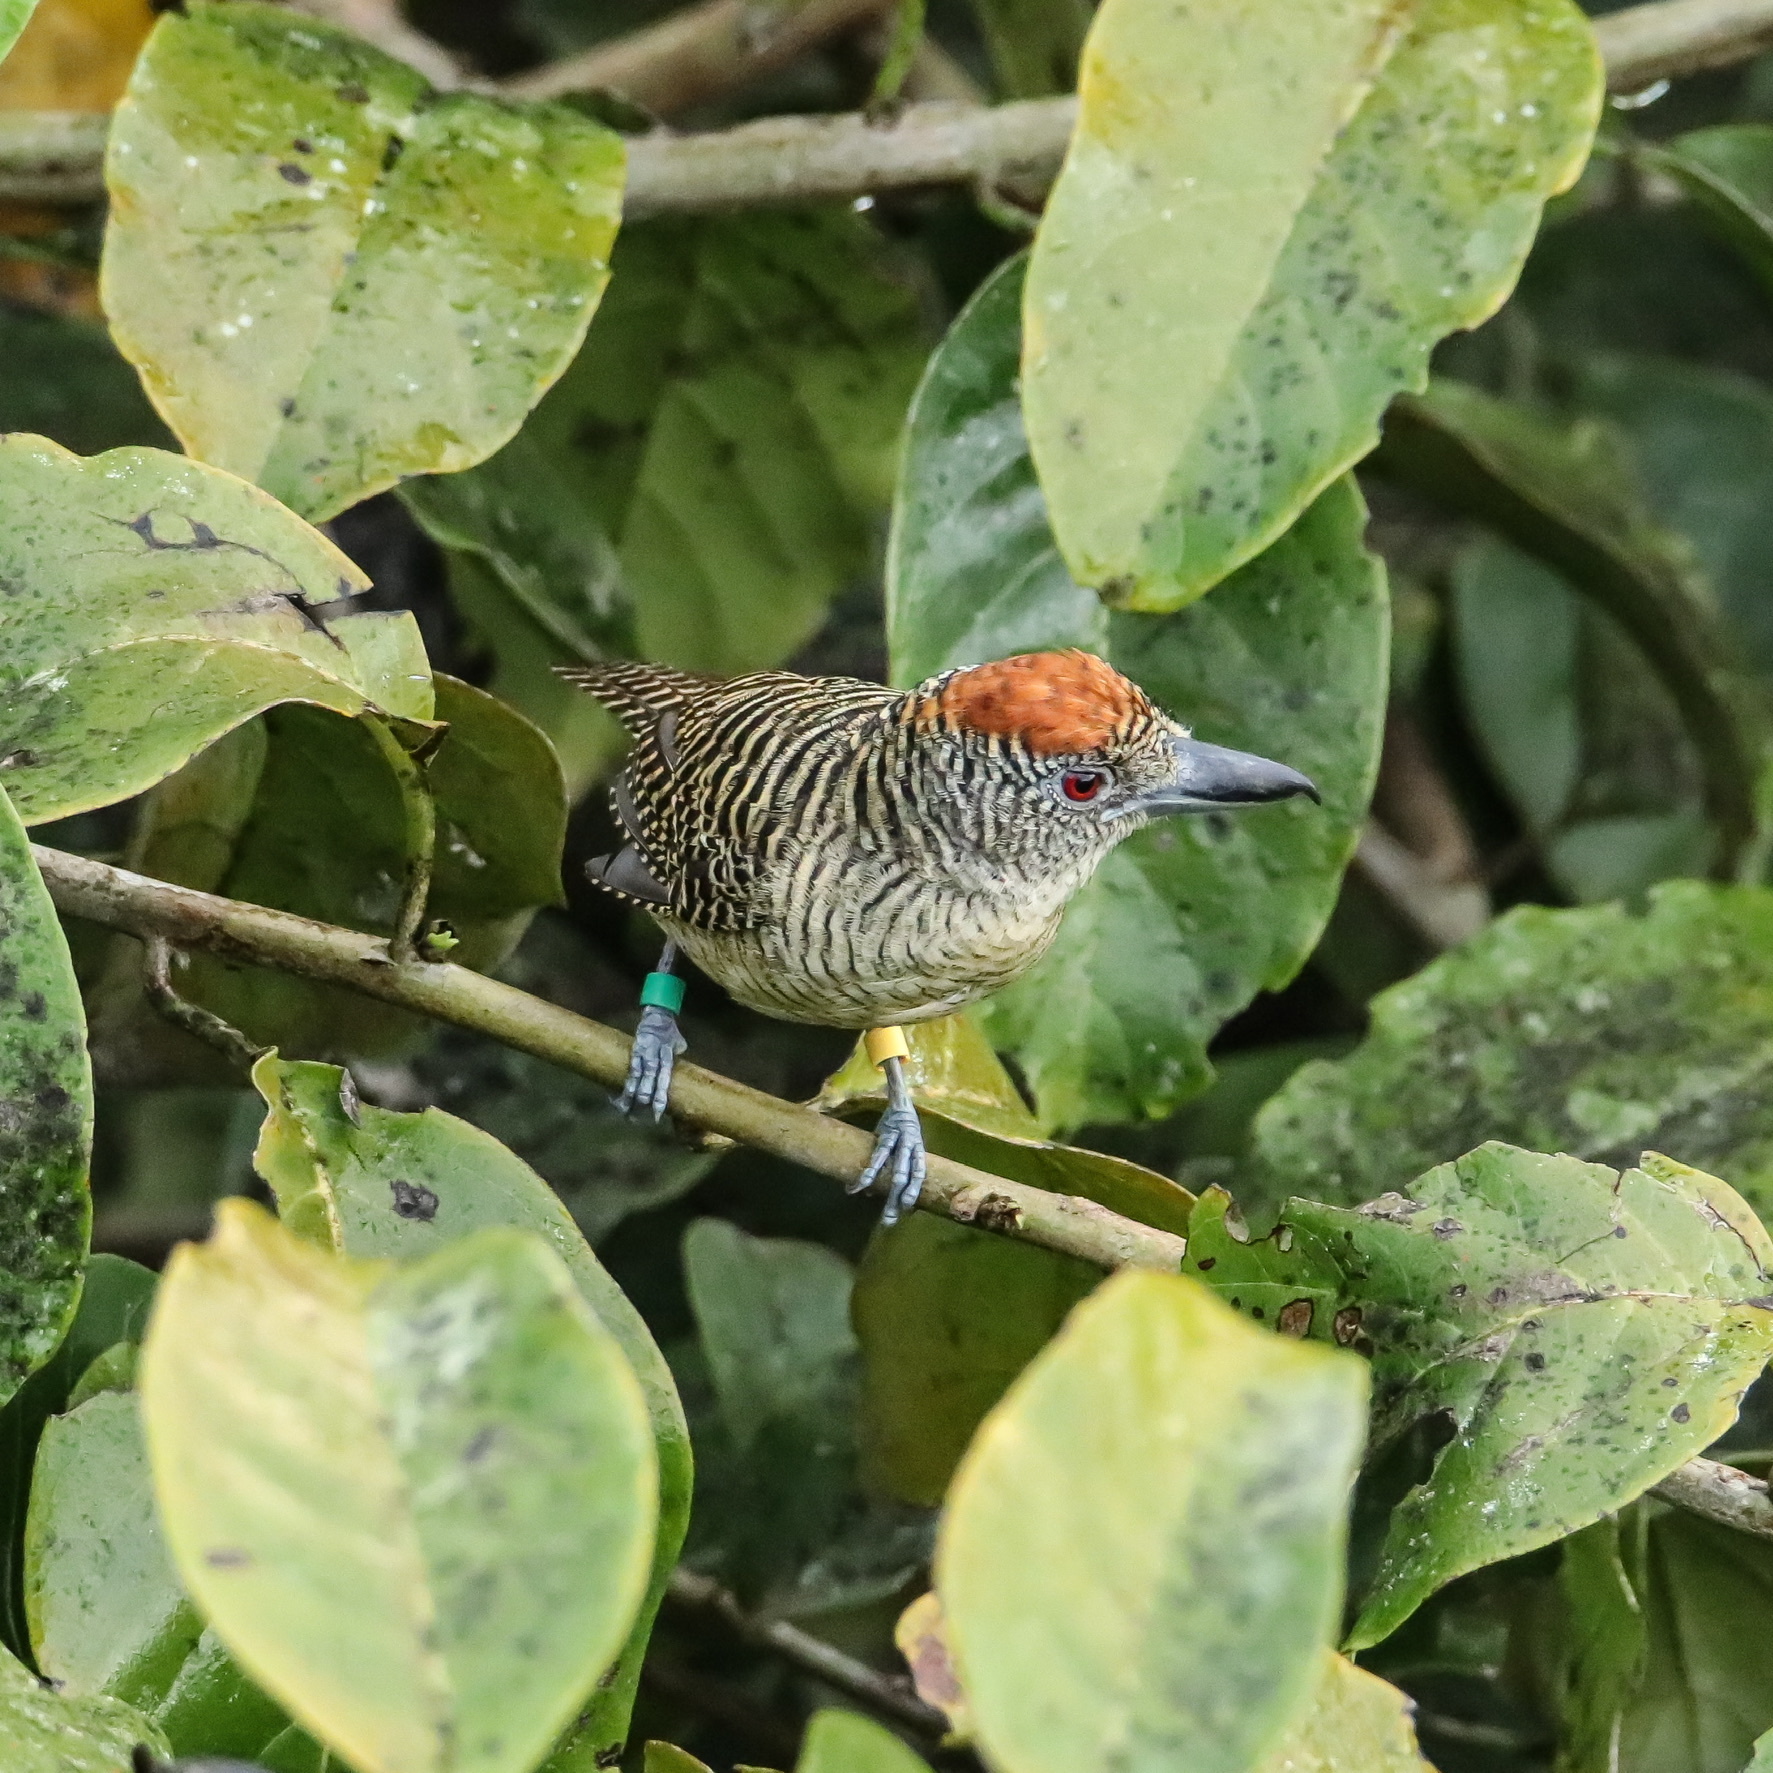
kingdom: Animalia
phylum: Chordata
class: Aves
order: Passeriformes
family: Thamnophilidae
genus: Cymbilaimus
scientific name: Cymbilaimus lineatus
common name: Fasciated antshrike
